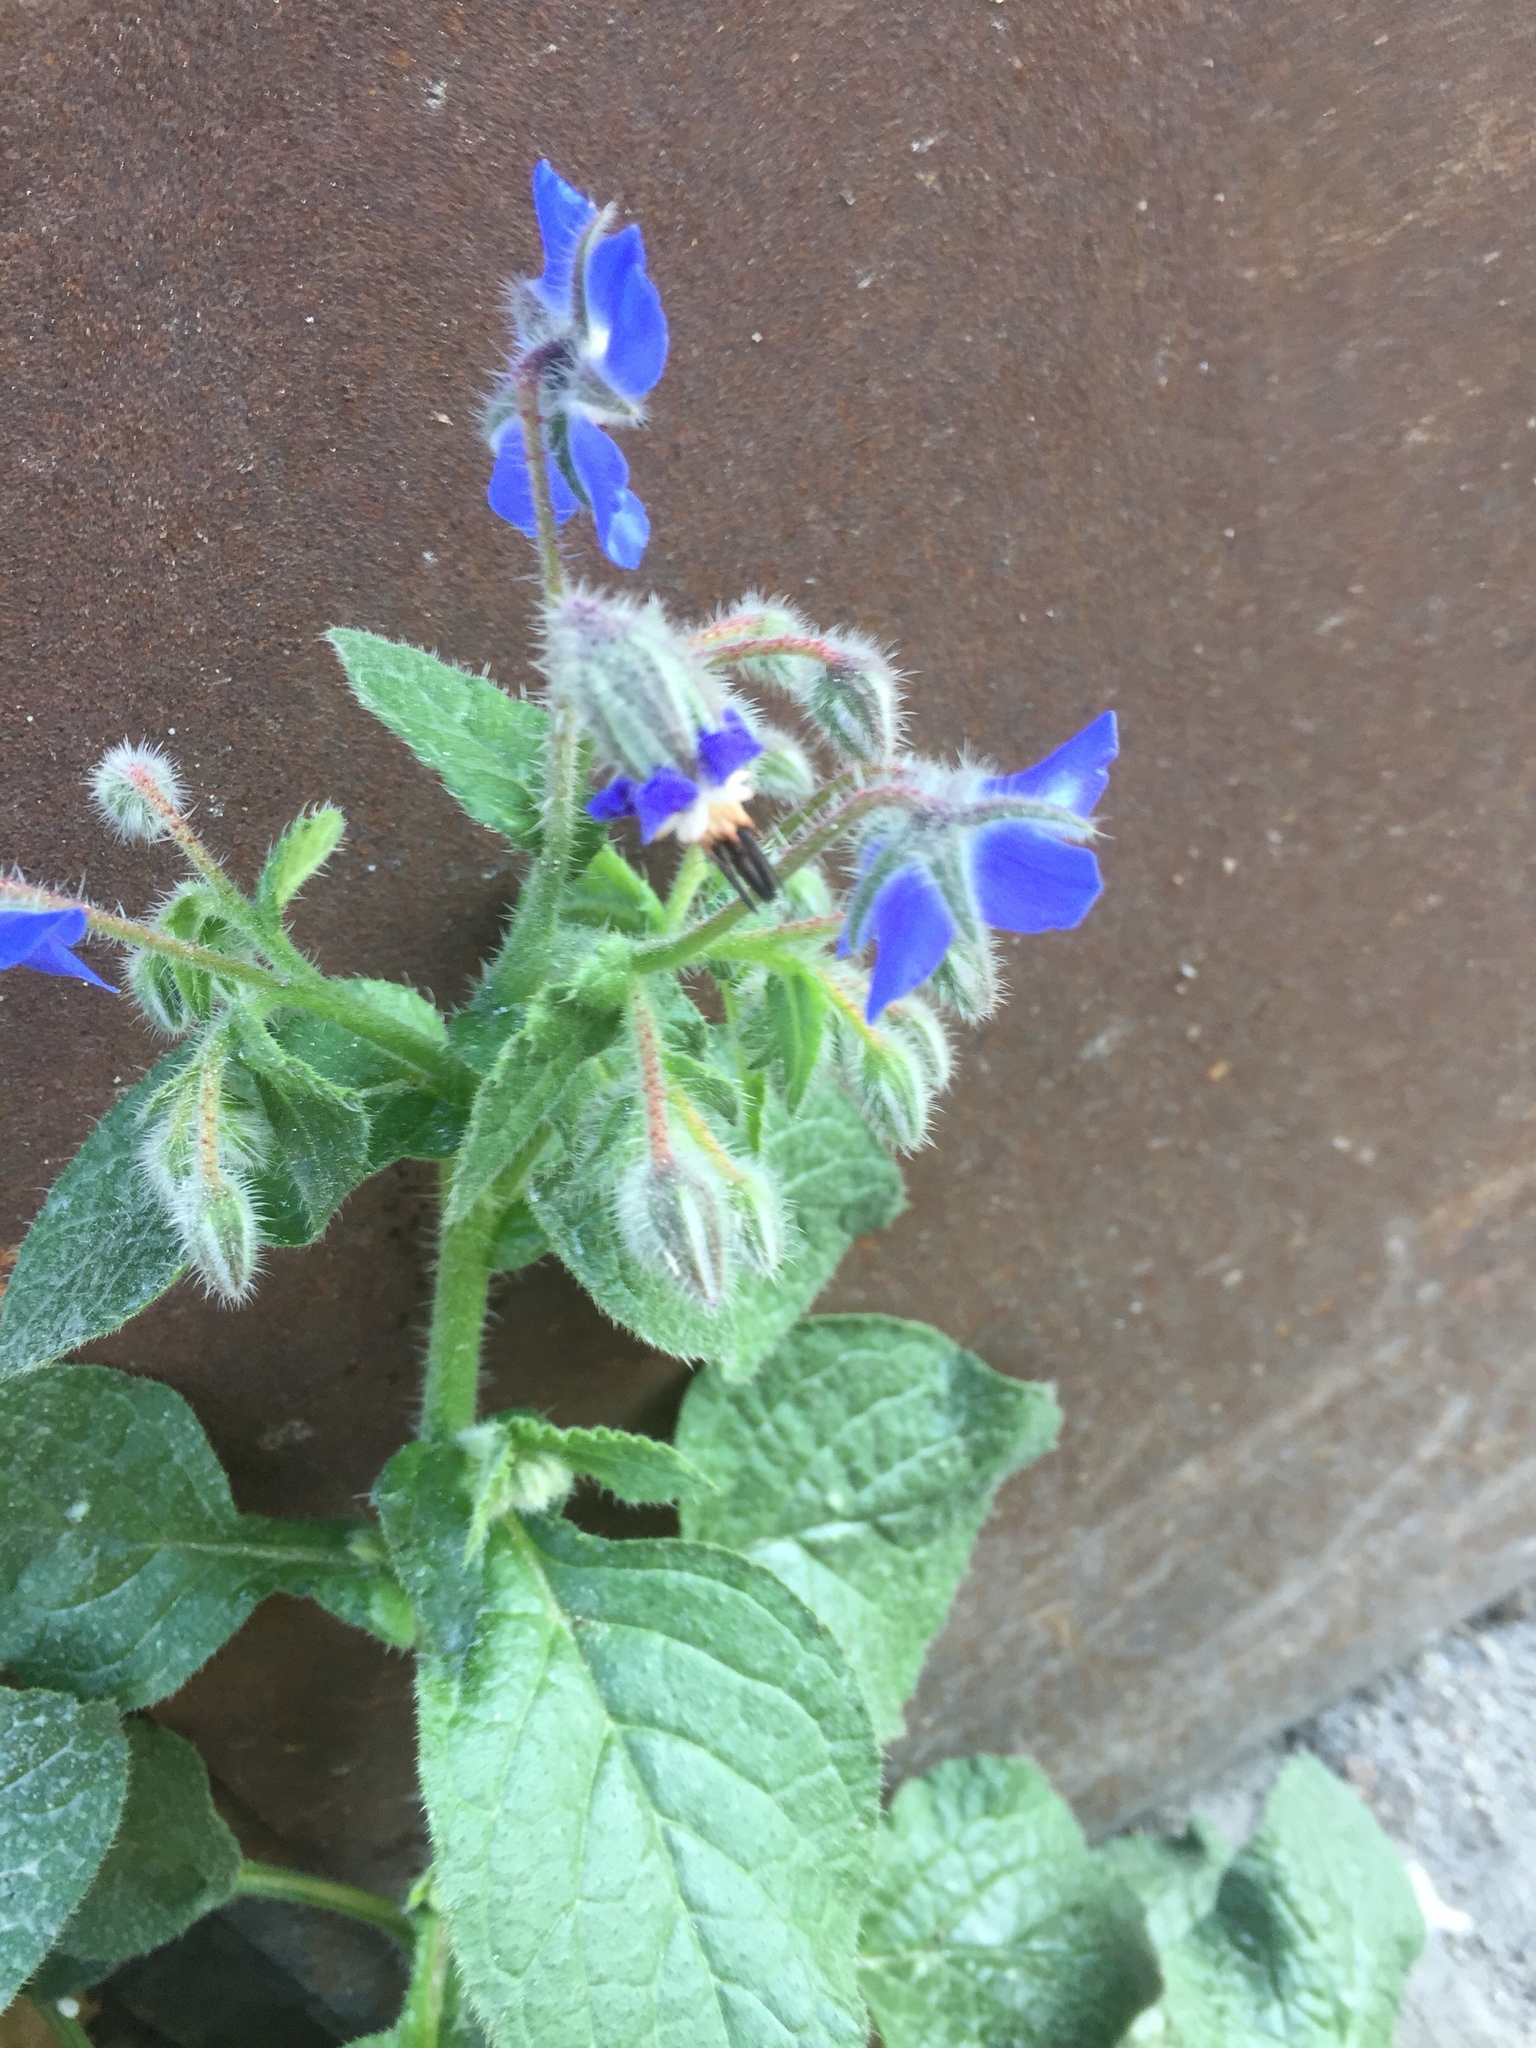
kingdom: Plantae
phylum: Tracheophyta
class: Magnoliopsida
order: Boraginales
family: Boraginaceae
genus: Borago
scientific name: Borago officinalis
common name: Borage
